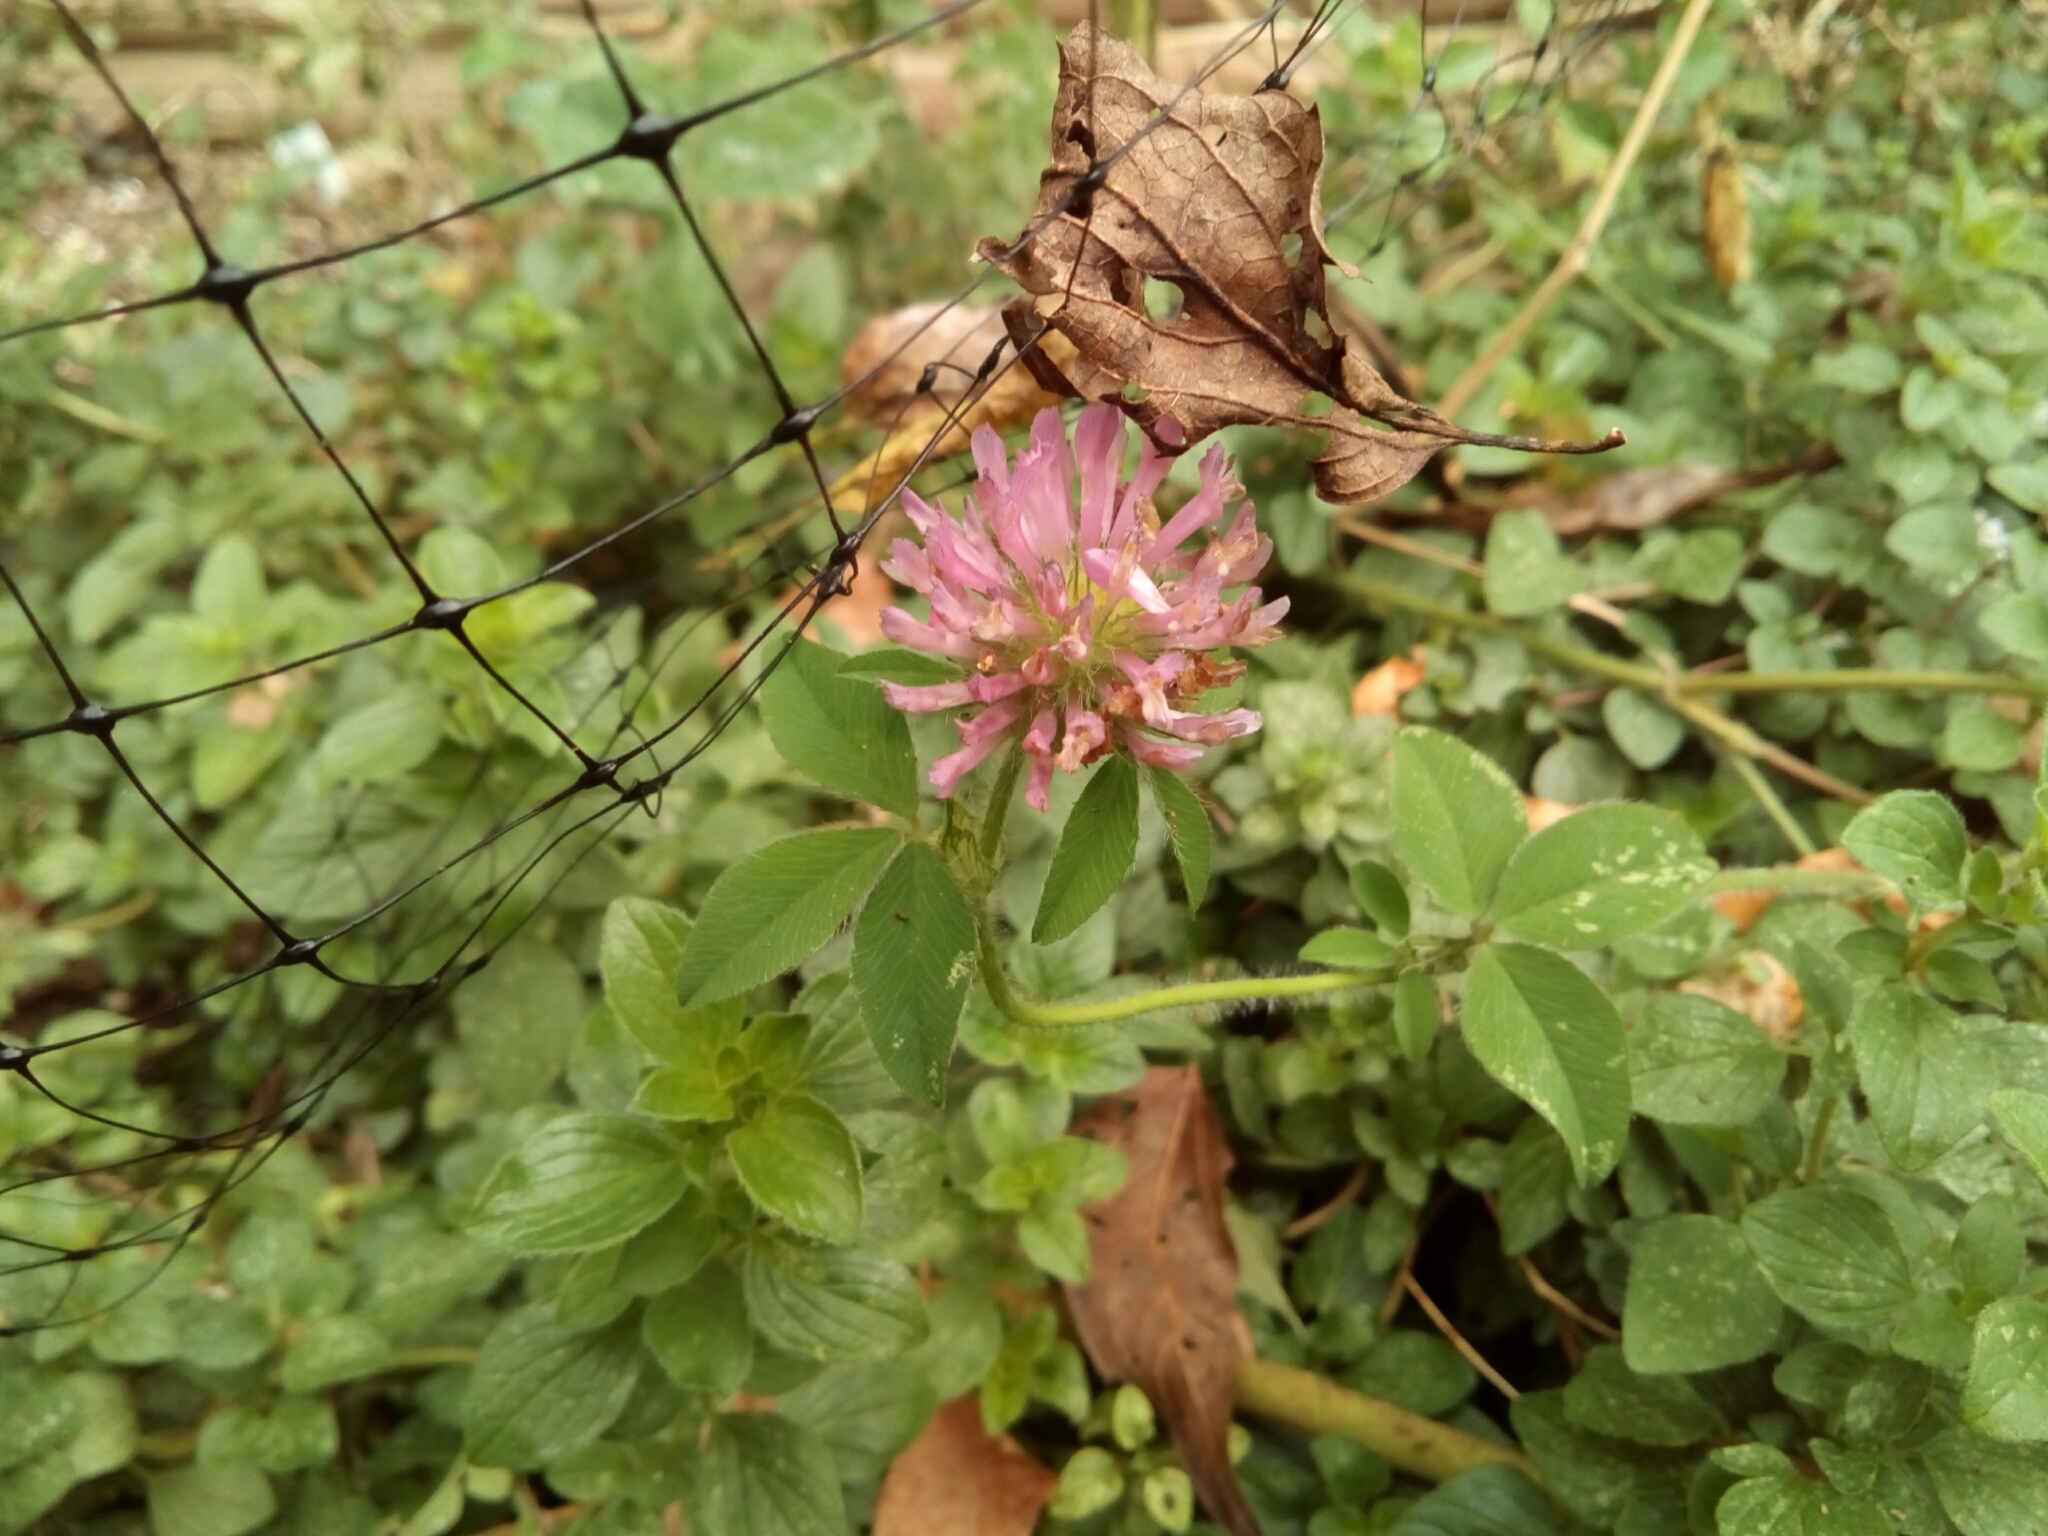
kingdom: Plantae
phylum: Tracheophyta
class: Magnoliopsida
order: Fabales
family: Fabaceae
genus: Trifolium
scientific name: Trifolium pratense
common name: Red clover
